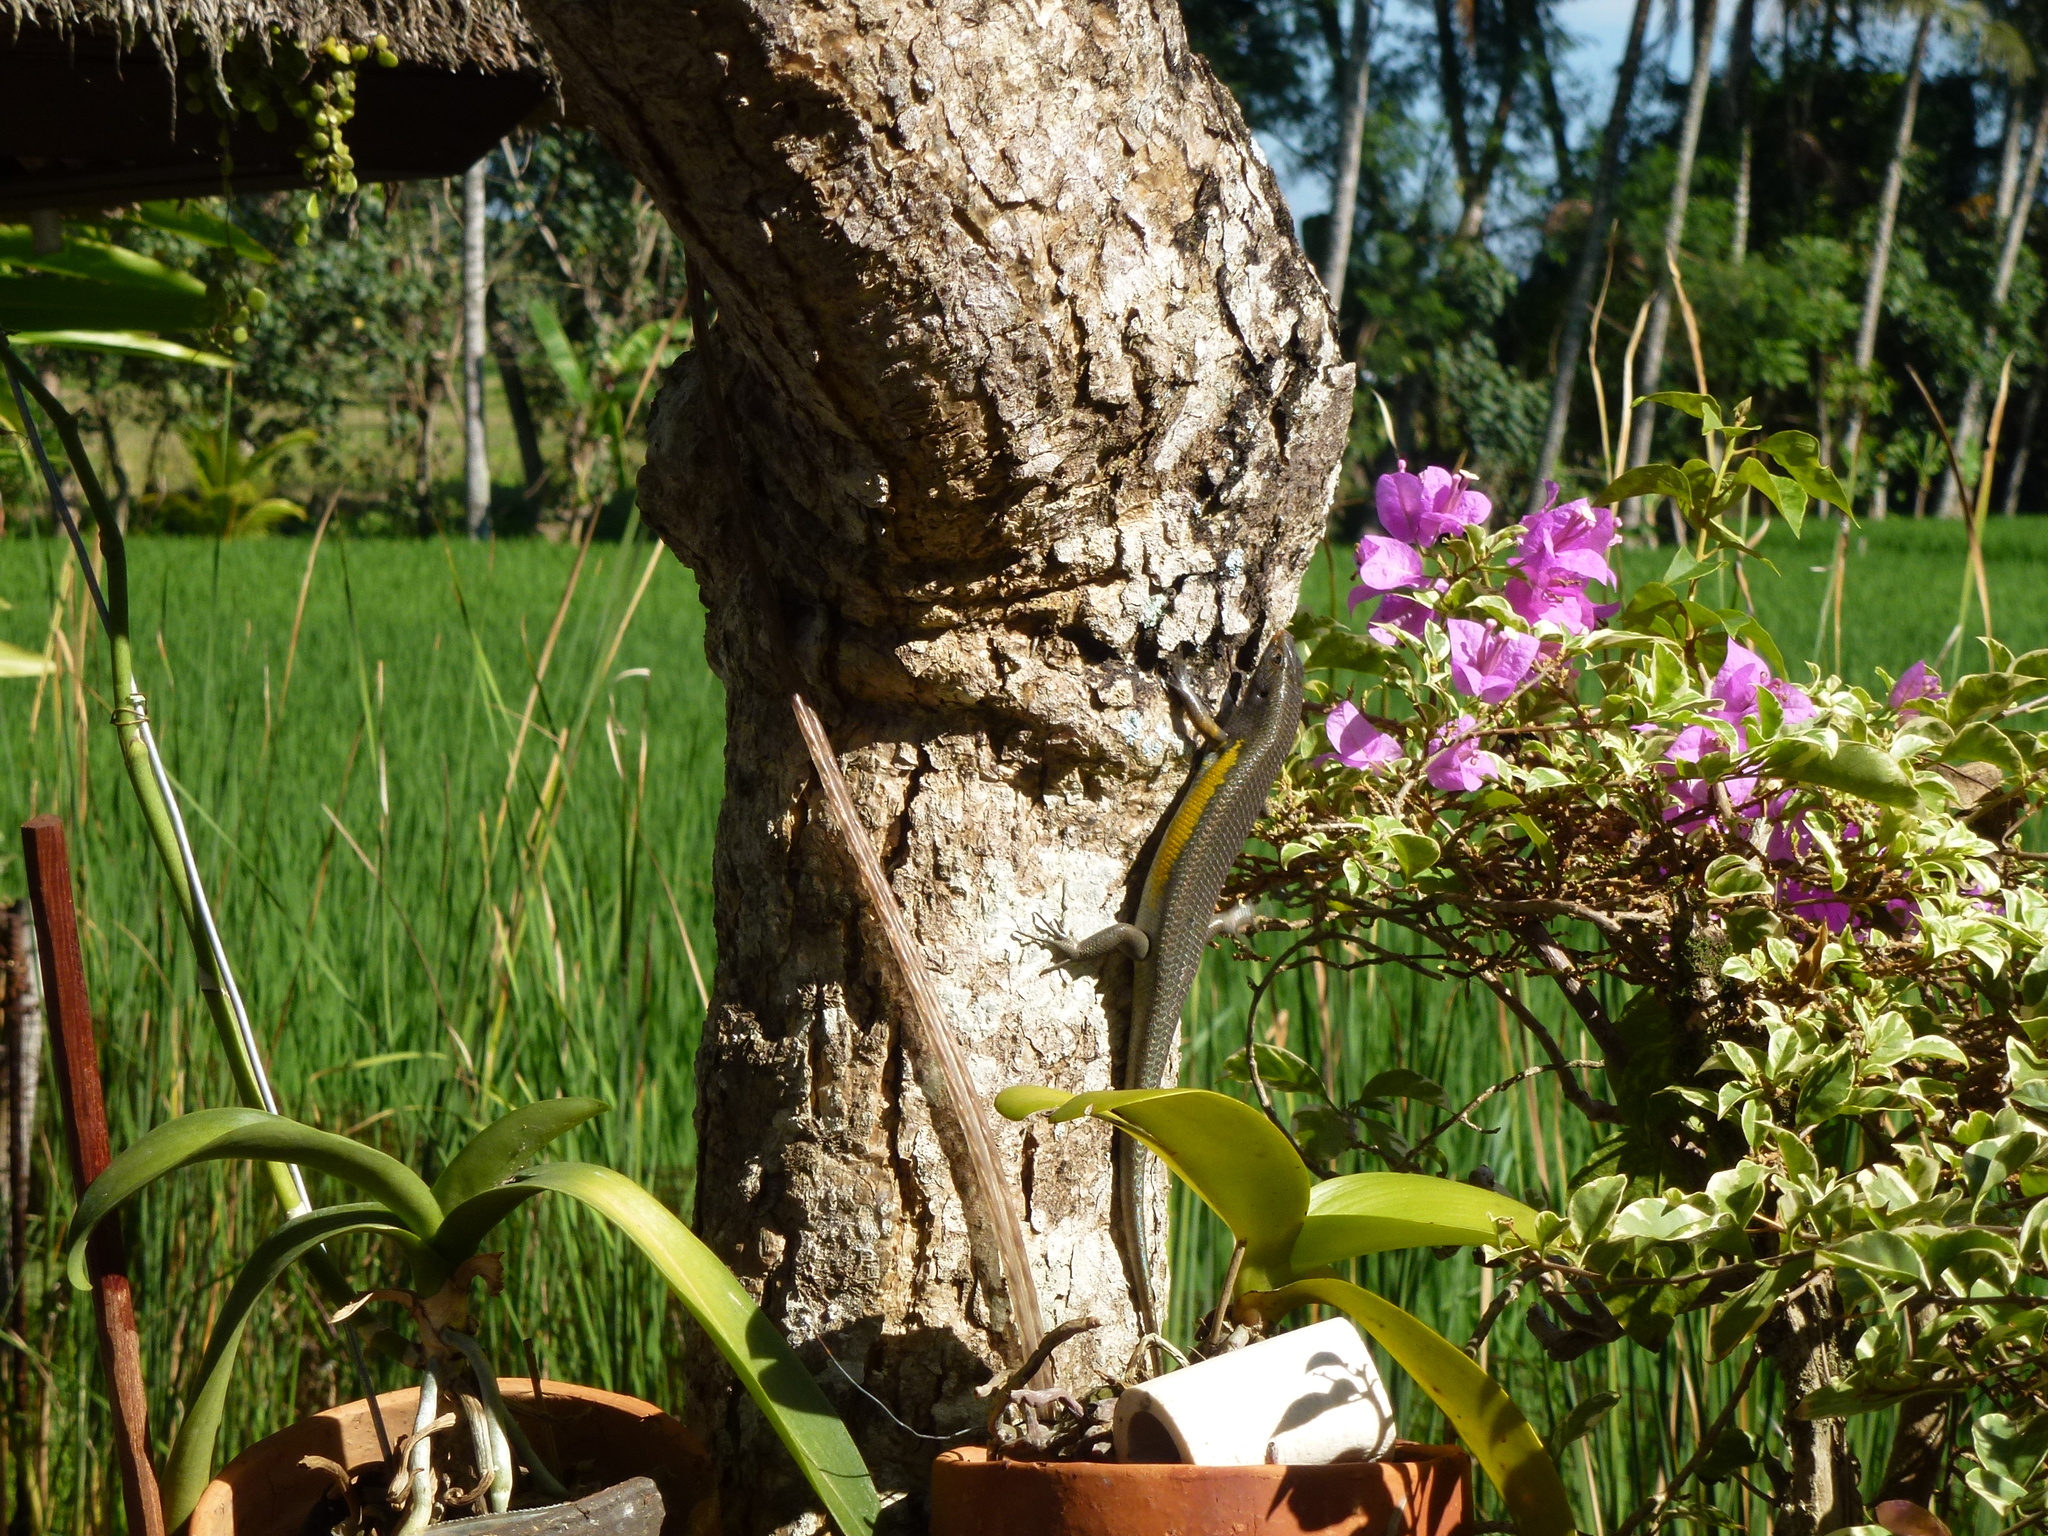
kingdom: Animalia
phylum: Chordata
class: Squamata
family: Scincidae
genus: Eutropis
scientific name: Eutropis multifasciata
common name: Common mabuya
